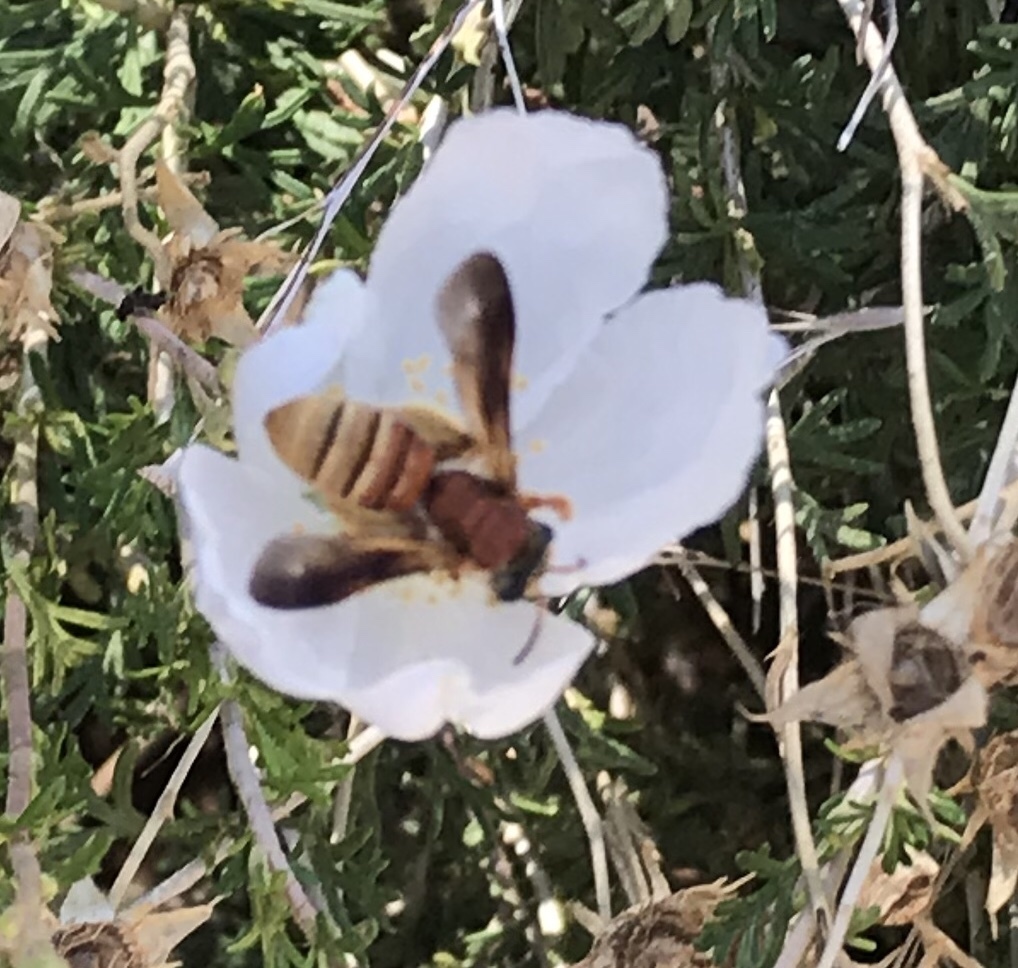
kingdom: Animalia
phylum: Arthropoda
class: Insecta
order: Hymenoptera
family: Andrenidae
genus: Andrena
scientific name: Andrena mellea
